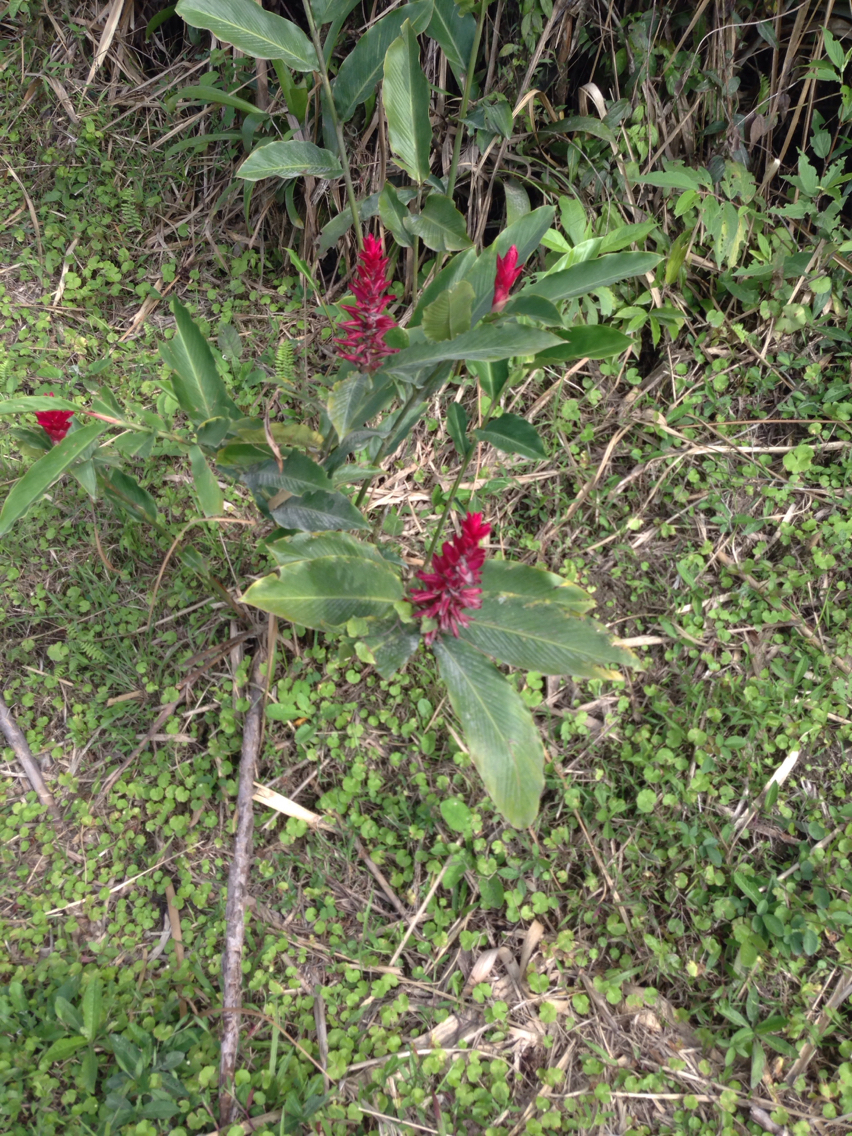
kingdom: Plantae
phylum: Tracheophyta
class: Liliopsida
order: Zingiberales
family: Zingiberaceae
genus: Alpinia
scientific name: Alpinia purpurata
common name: Red ginger
